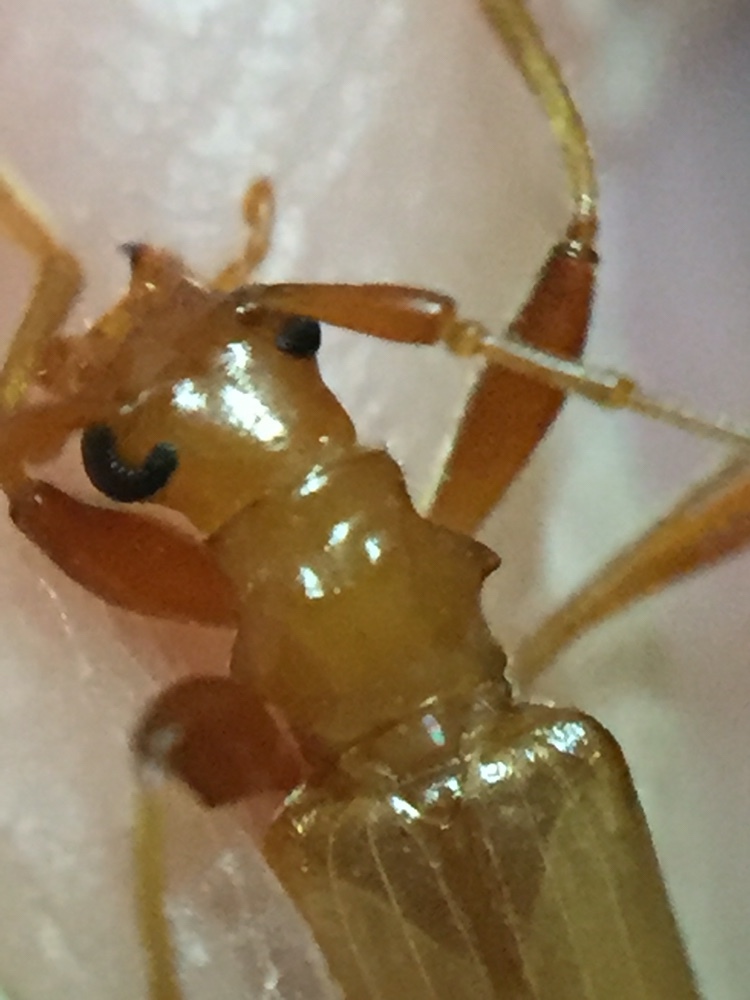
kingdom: Animalia
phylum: Arthropoda
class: Insecta
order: Coleoptera
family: Cerambycidae
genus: Votum
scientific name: Votum munda
